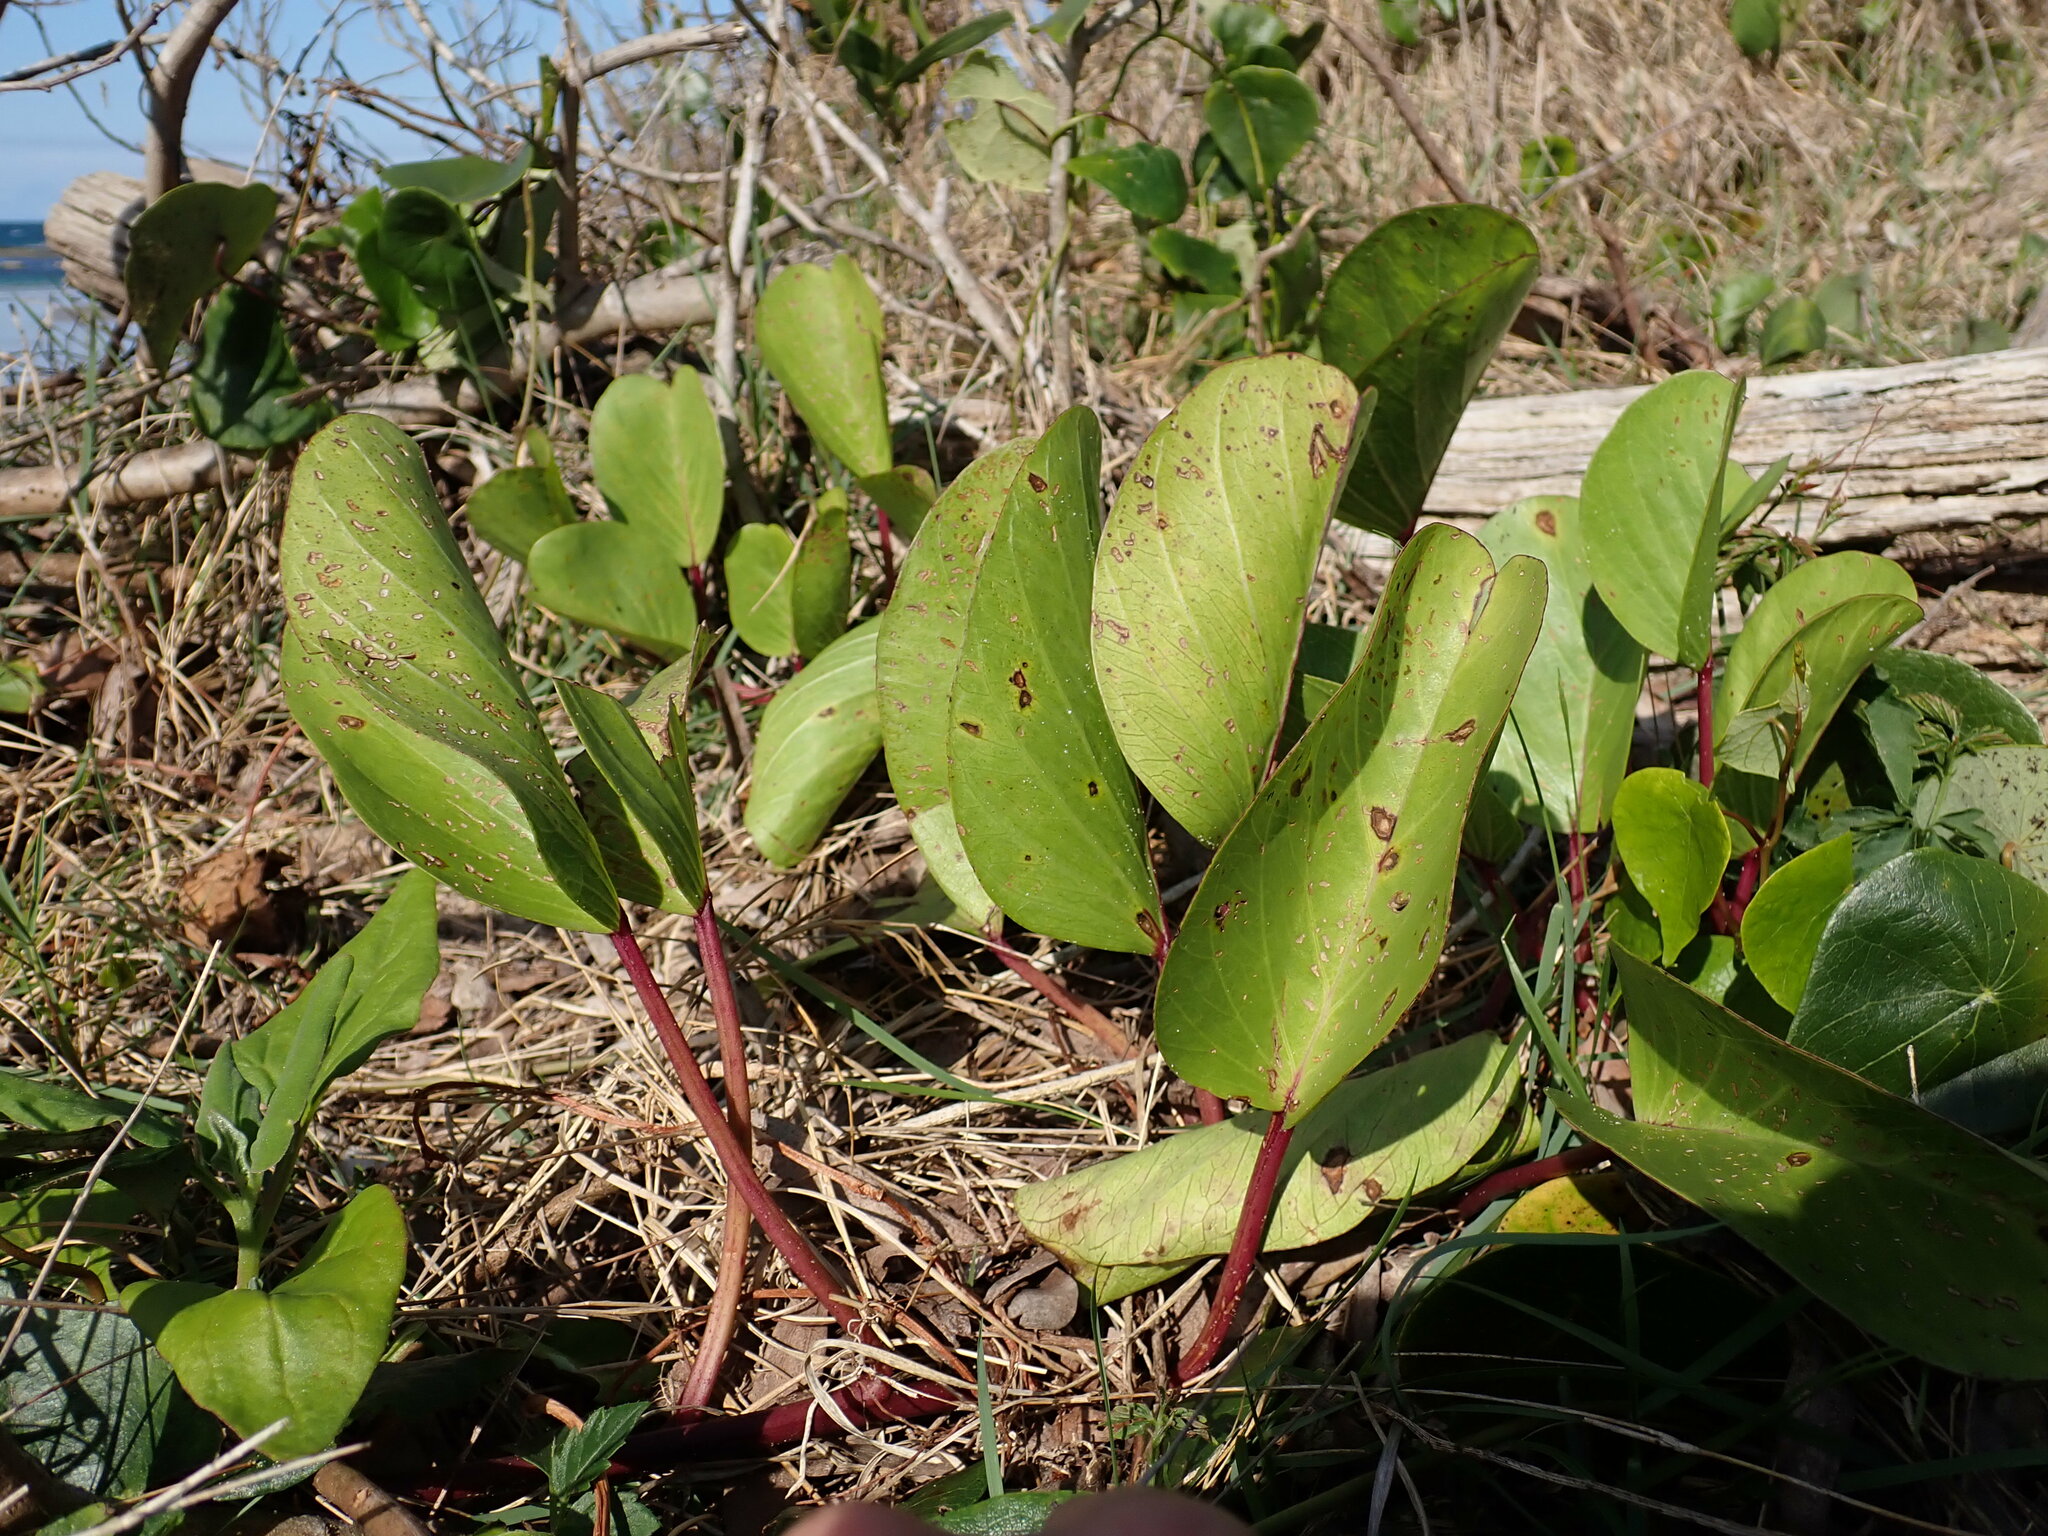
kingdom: Plantae
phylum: Tracheophyta
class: Magnoliopsida
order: Solanales
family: Convolvulaceae
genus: Ipomoea
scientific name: Ipomoea pes-caprae
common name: Beach morning glory
